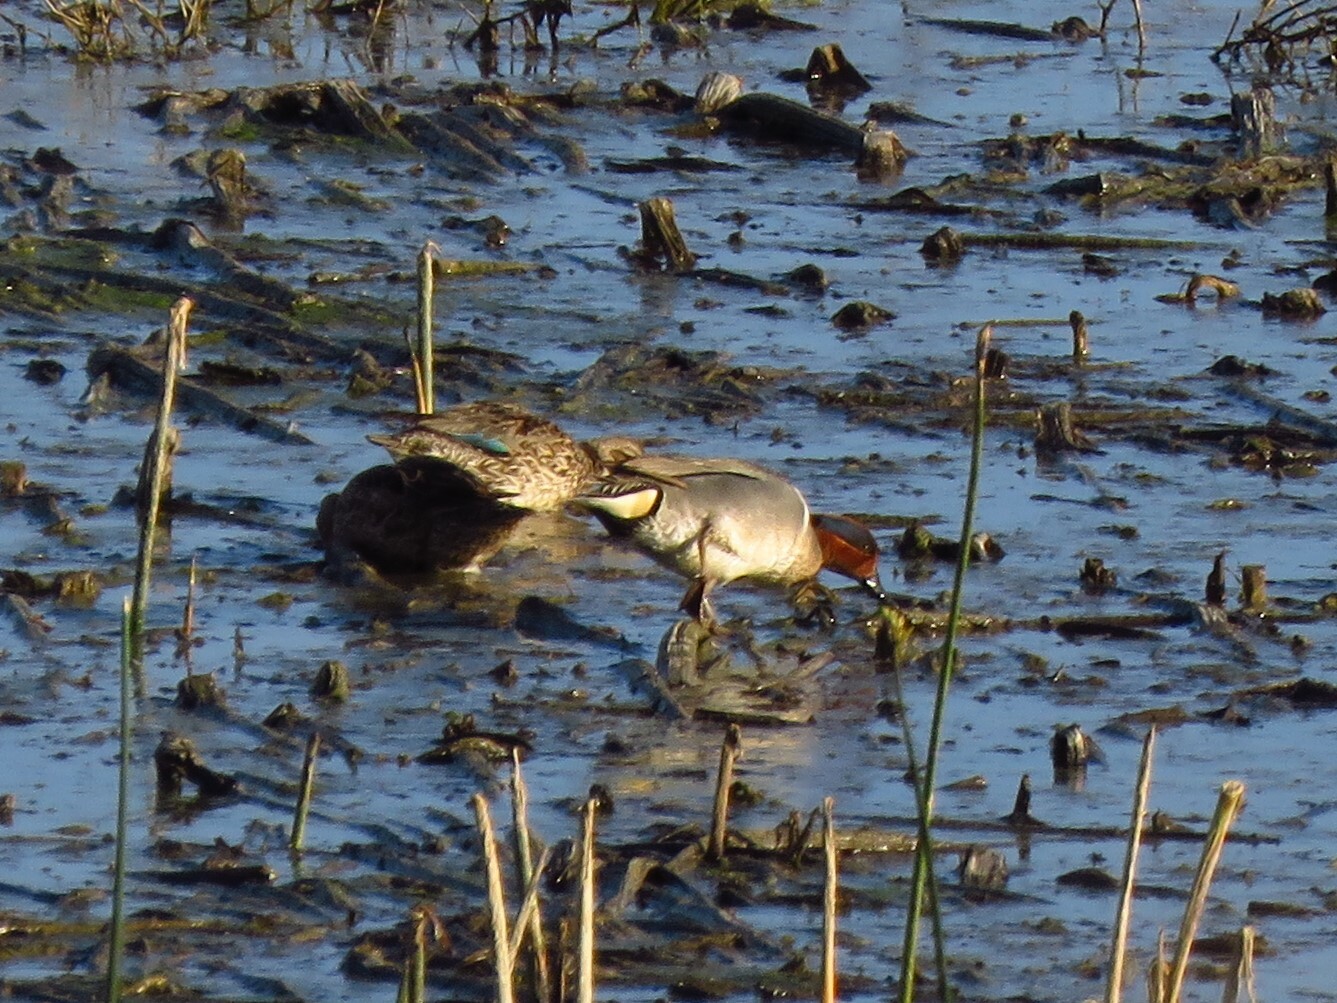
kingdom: Animalia
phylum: Chordata
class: Aves
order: Anseriformes
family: Anatidae
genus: Anas
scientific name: Anas crecca
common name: Eurasian teal
